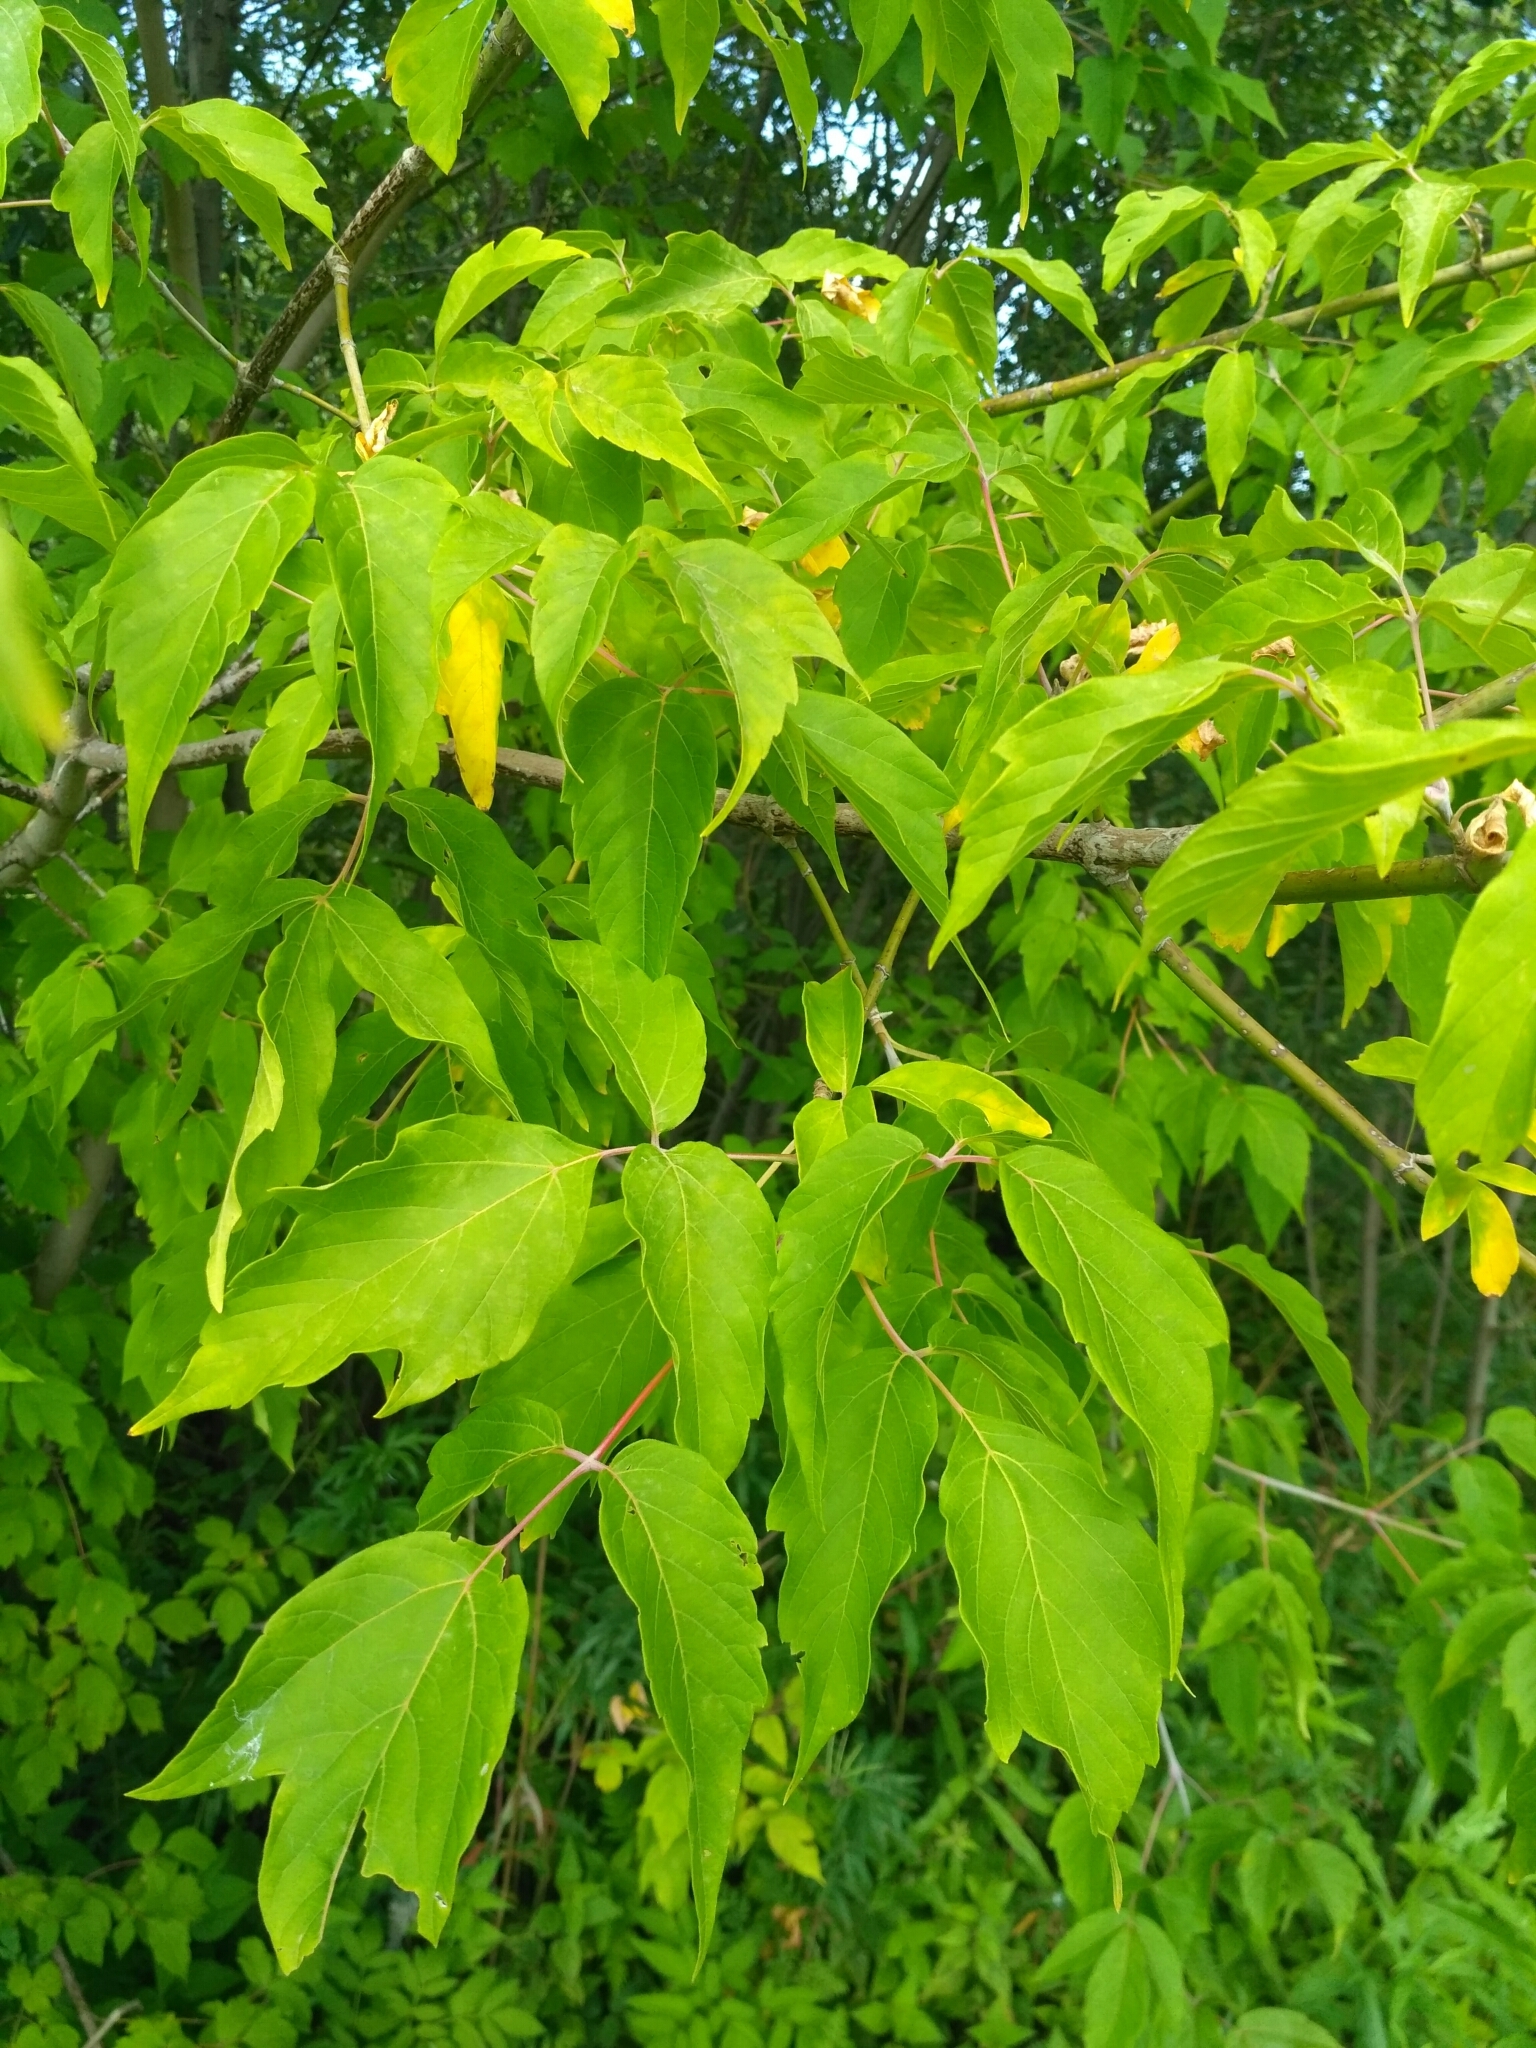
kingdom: Plantae
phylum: Tracheophyta
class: Magnoliopsida
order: Sapindales
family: Sapindaceae
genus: Acer
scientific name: Acer negundo
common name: Ashleaf maple
